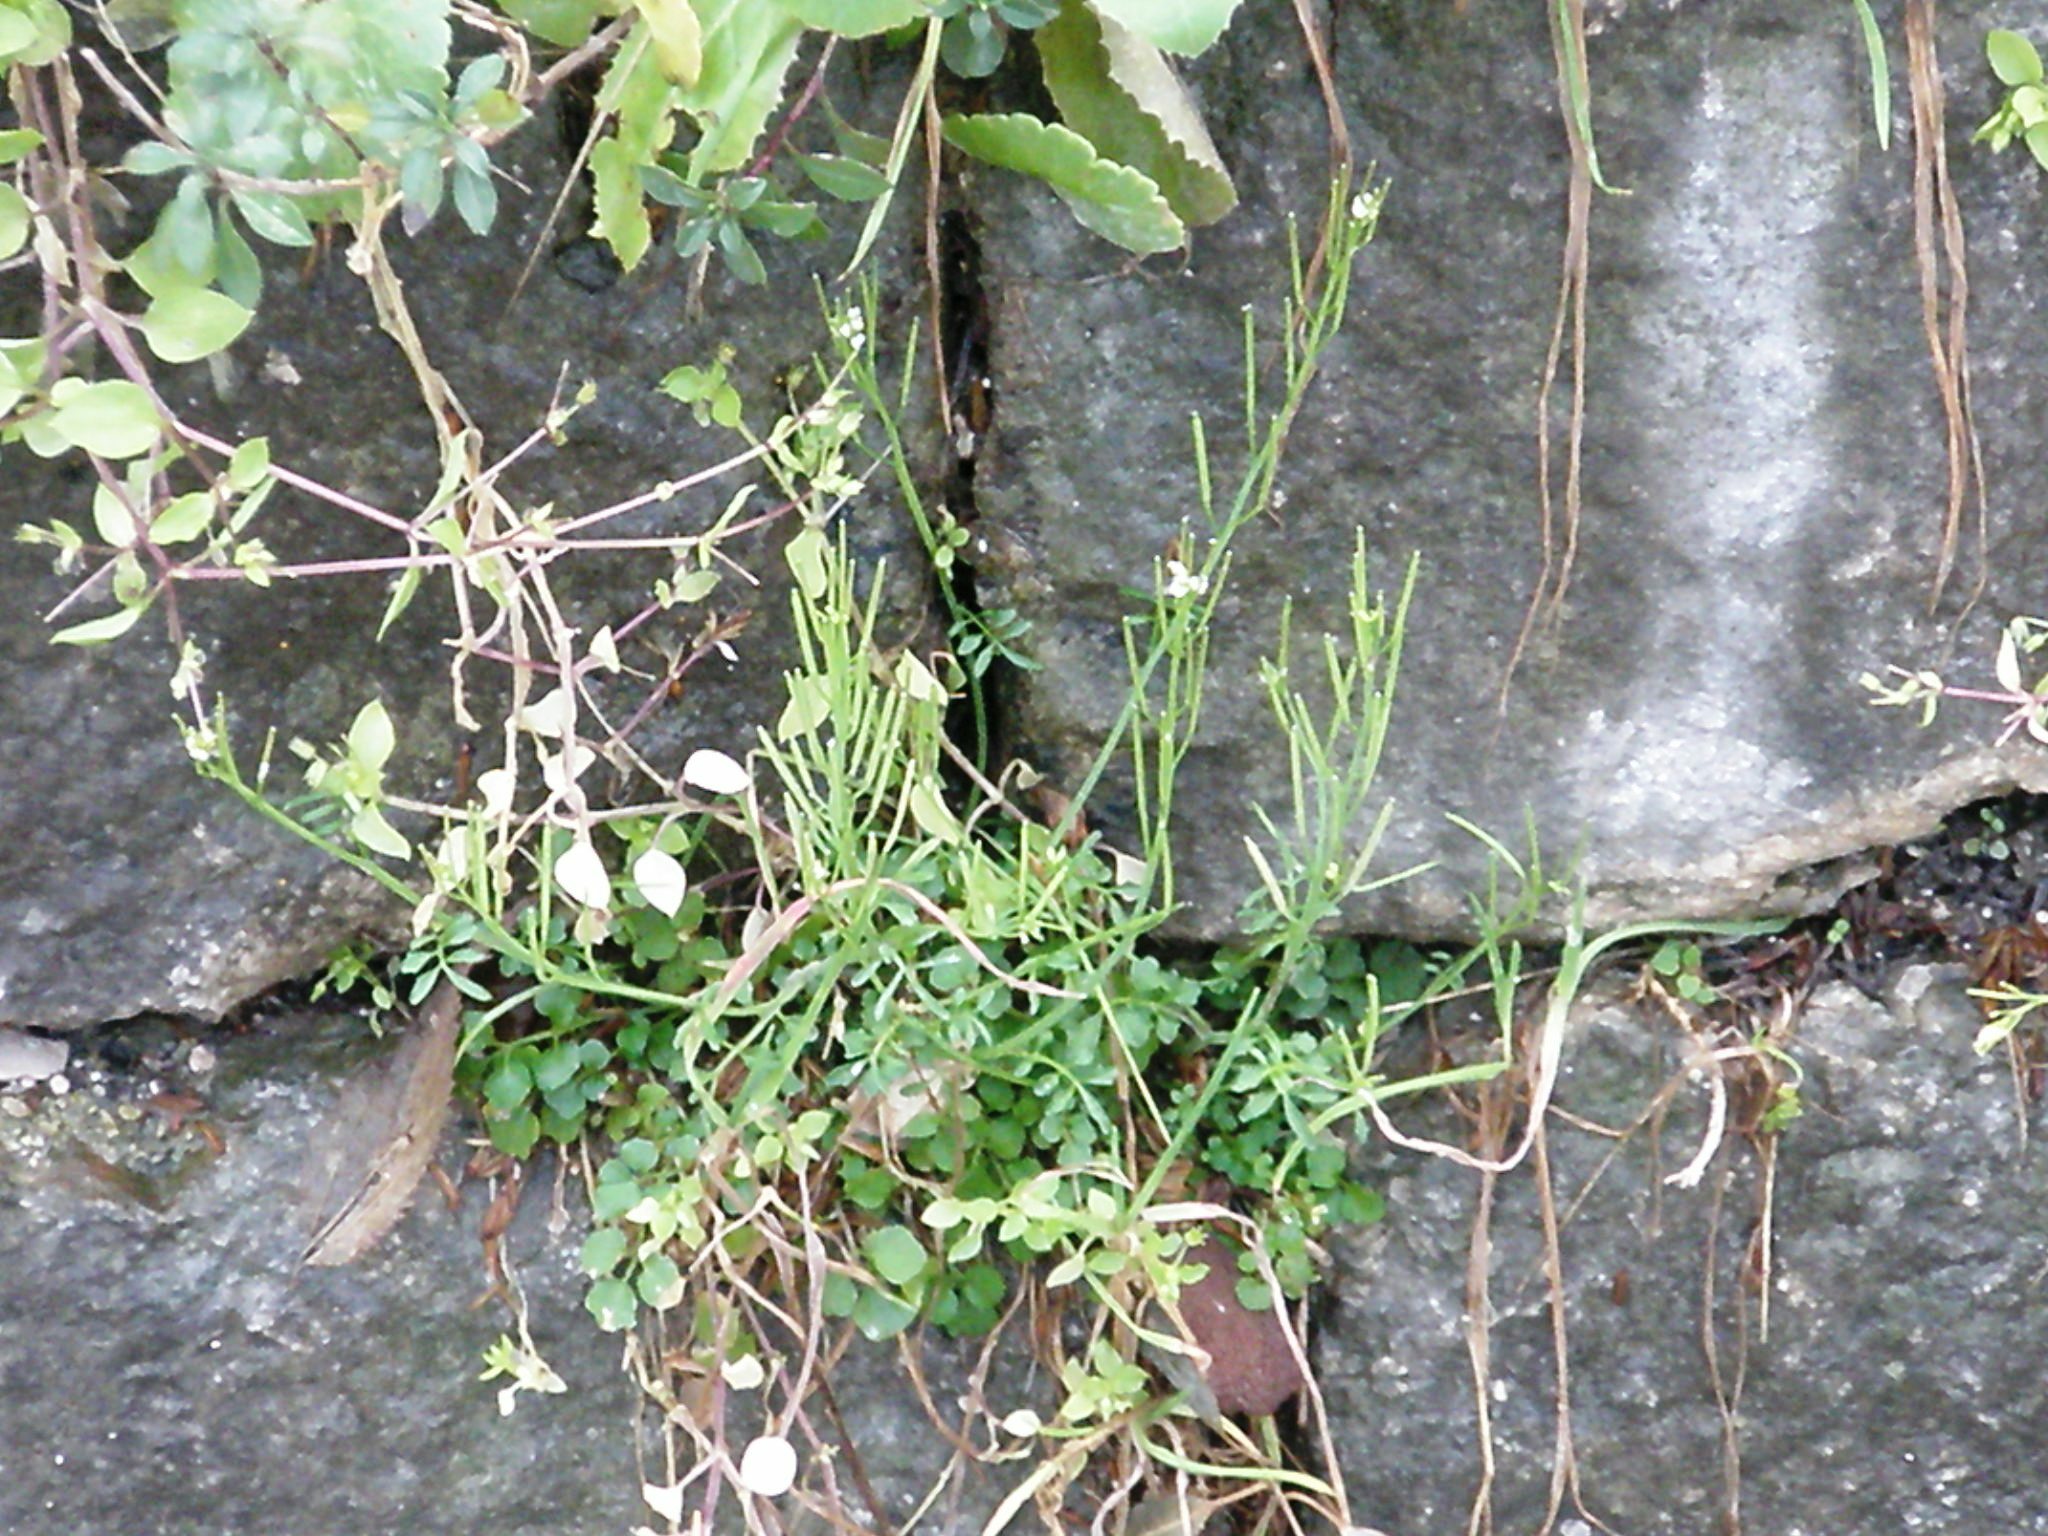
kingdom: Plantae
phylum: Tracheophyta
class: Magnoliopsida
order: Brassicales
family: Brassicaceae
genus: Cardamine
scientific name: Cardamine hirsuta
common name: Hairy bittercress
